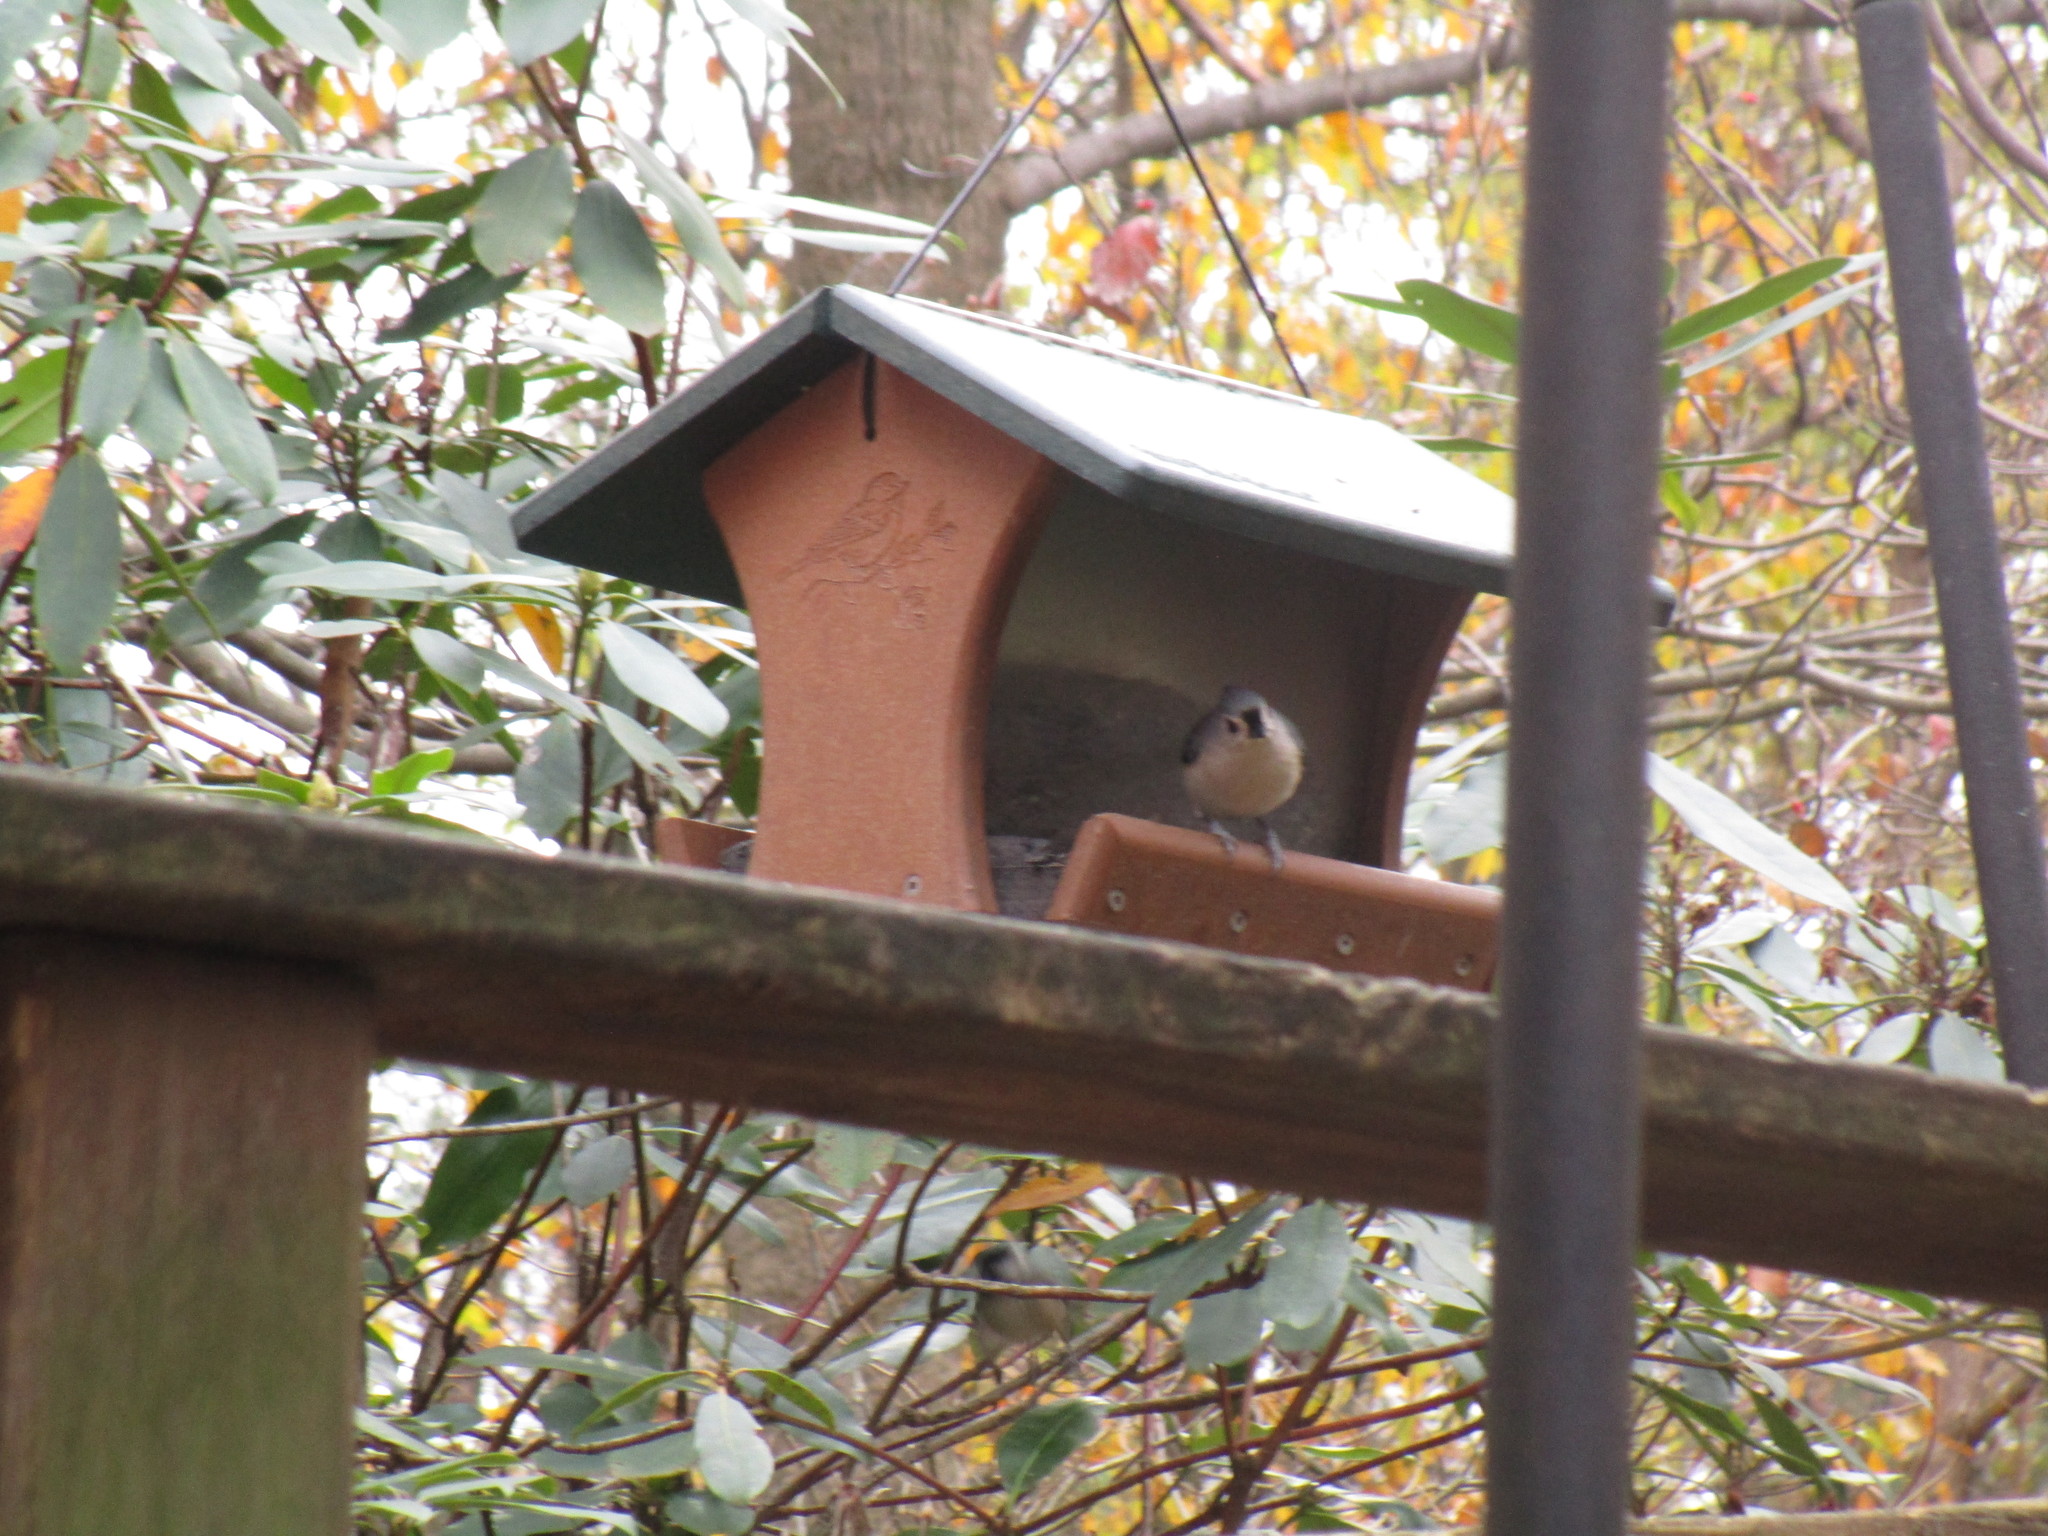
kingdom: Animalia
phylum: Chordata
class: Aves
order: Passeriformes
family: Paridae
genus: Baeolophus
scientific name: Baeolophus bicolor
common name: Tufted titmouse
